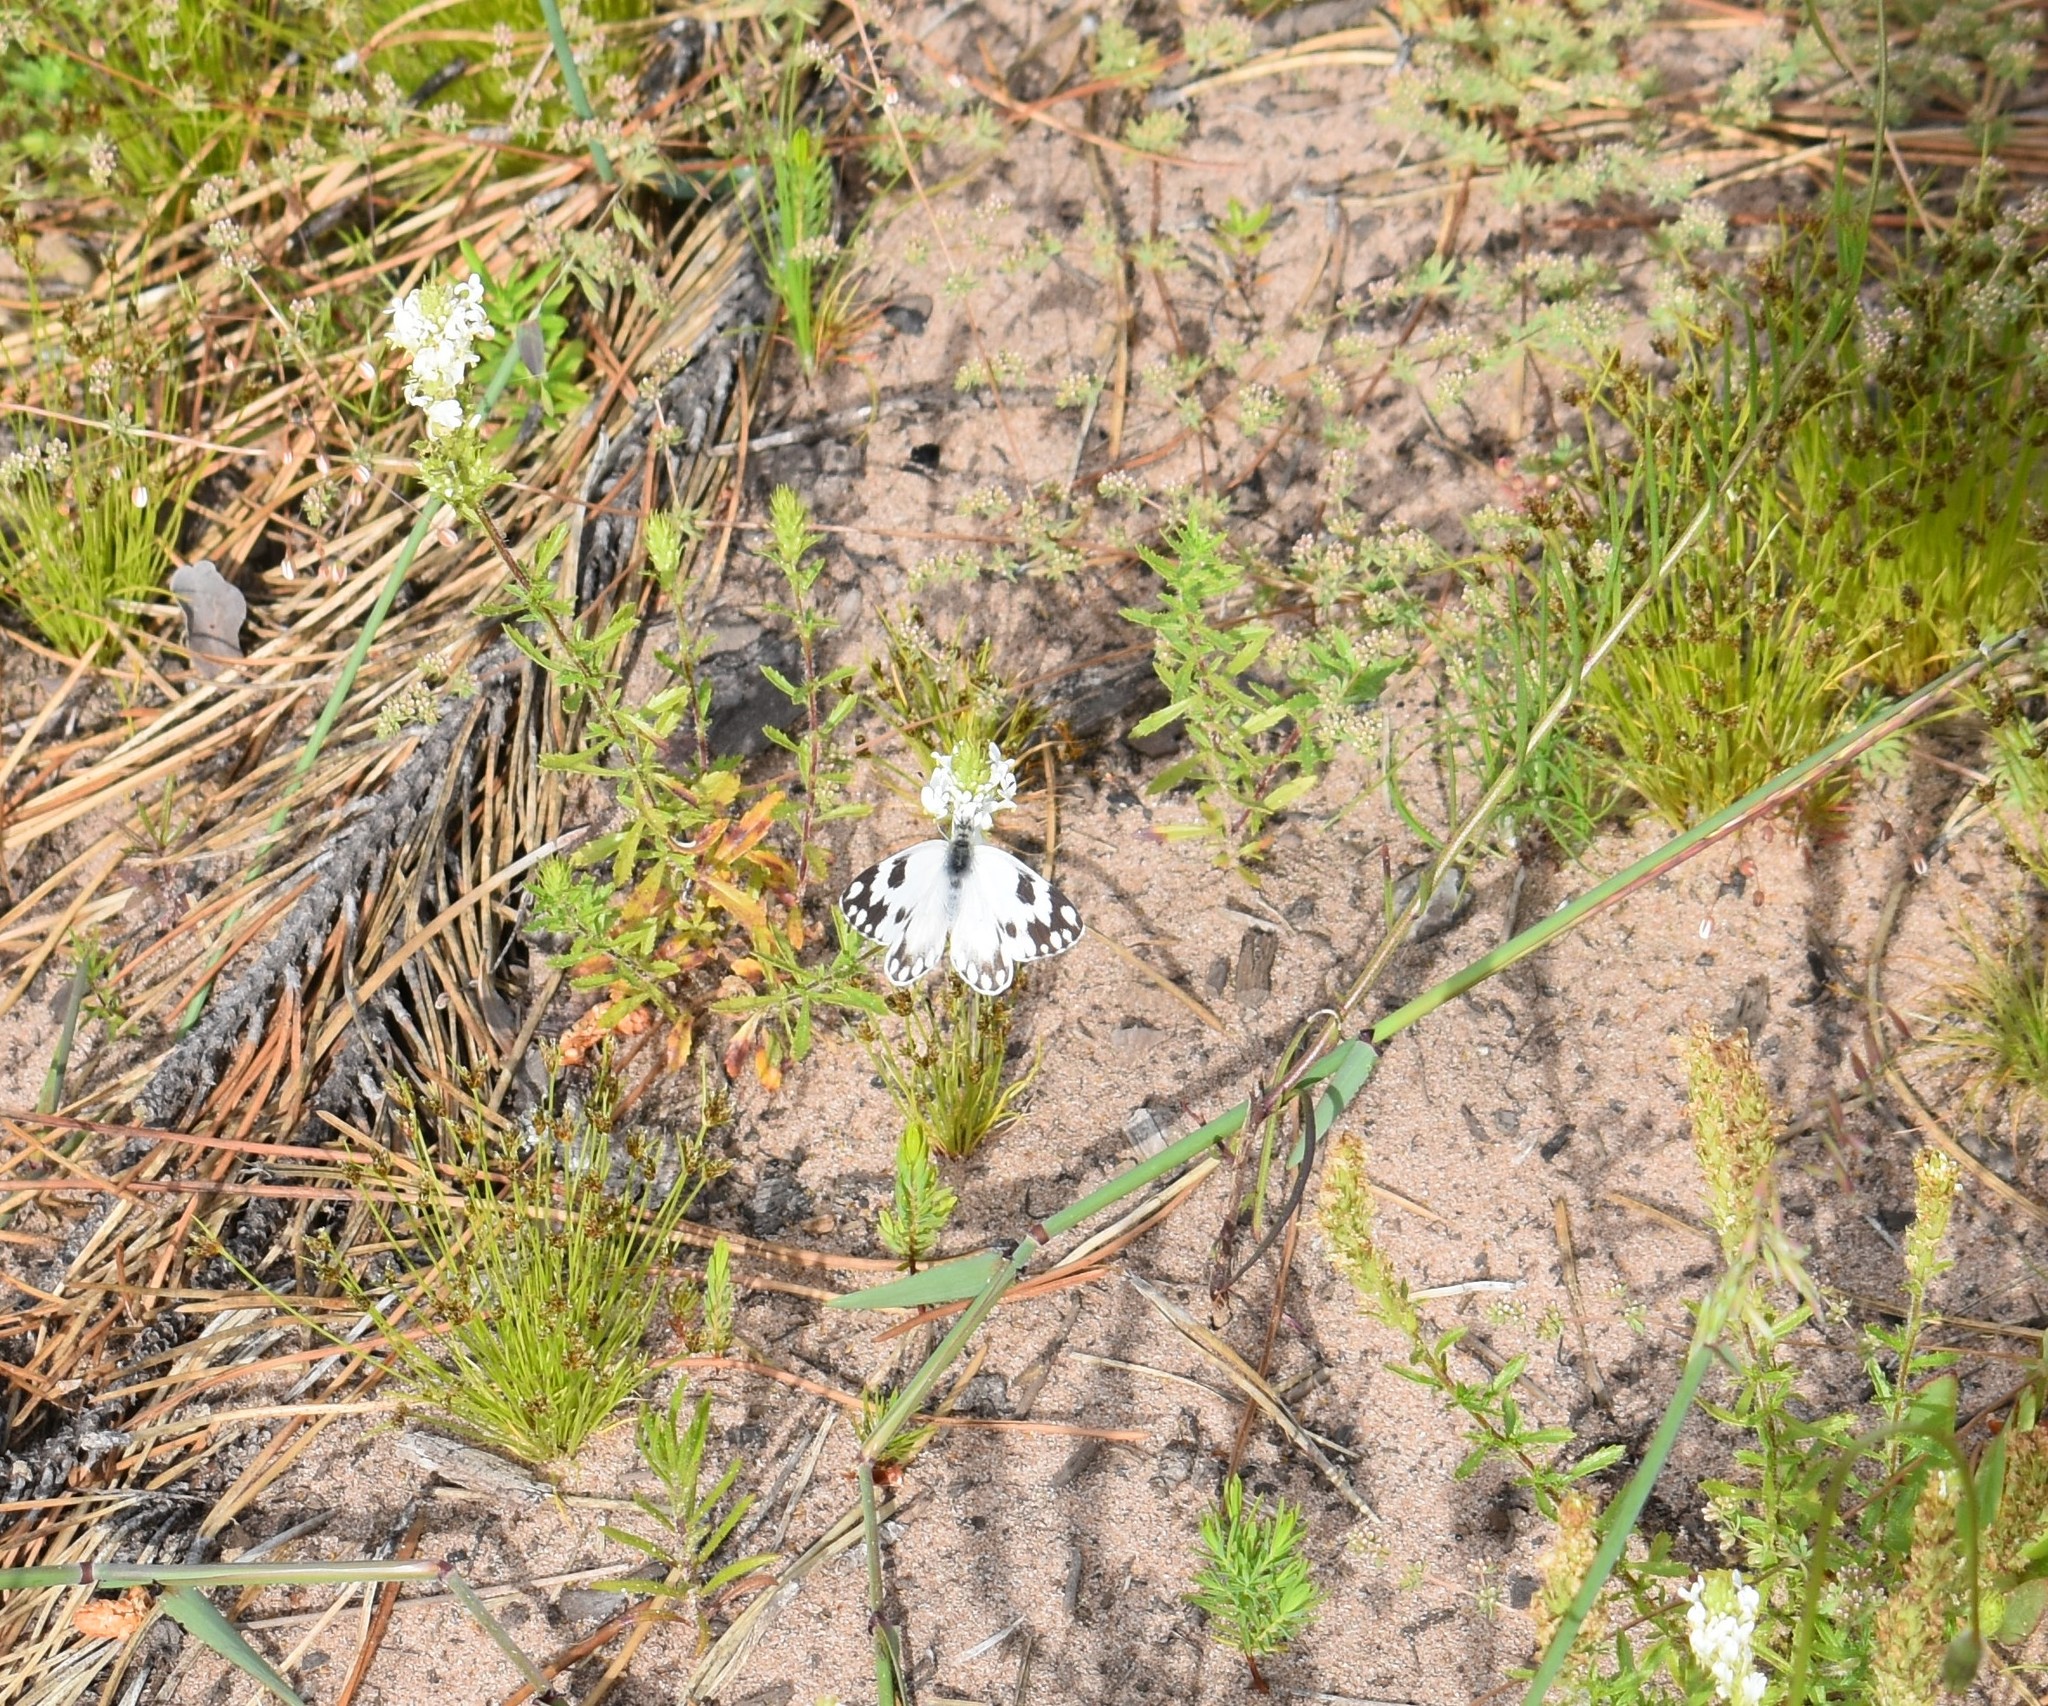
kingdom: Animalia
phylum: Arthropoda
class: Insecta
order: Lepidoptera
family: Pieridae
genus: Pontia
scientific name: Pontia helice
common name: Meadow white
